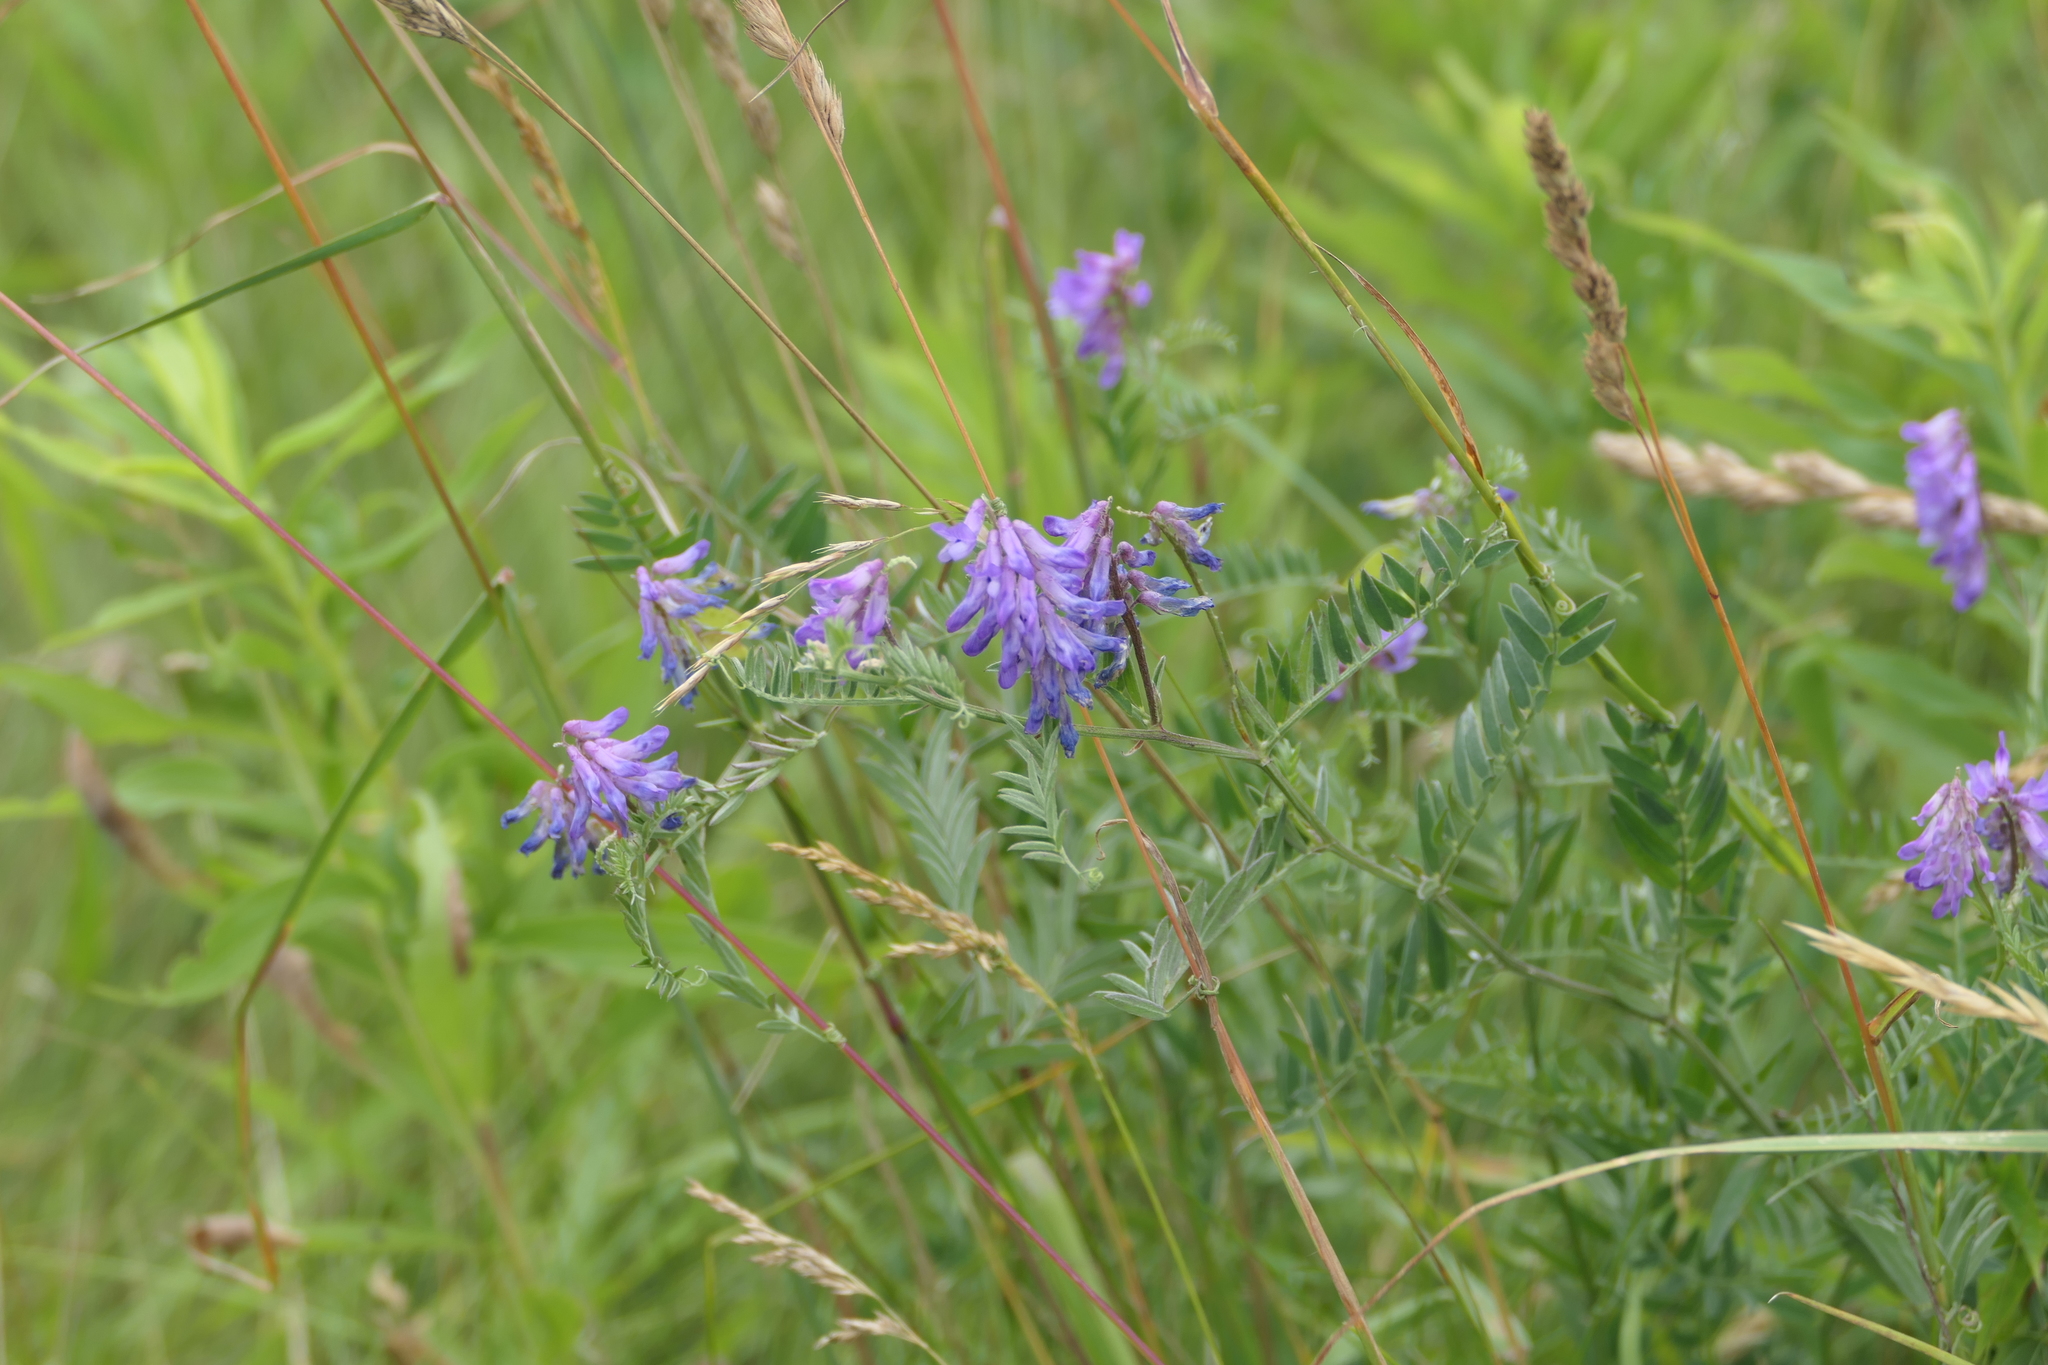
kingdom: Plantae
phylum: Tracheophyta
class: Magnoliopsida
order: Fabales
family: Fabaceae
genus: Vicia
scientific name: Vicia cracca
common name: Bird vetch
